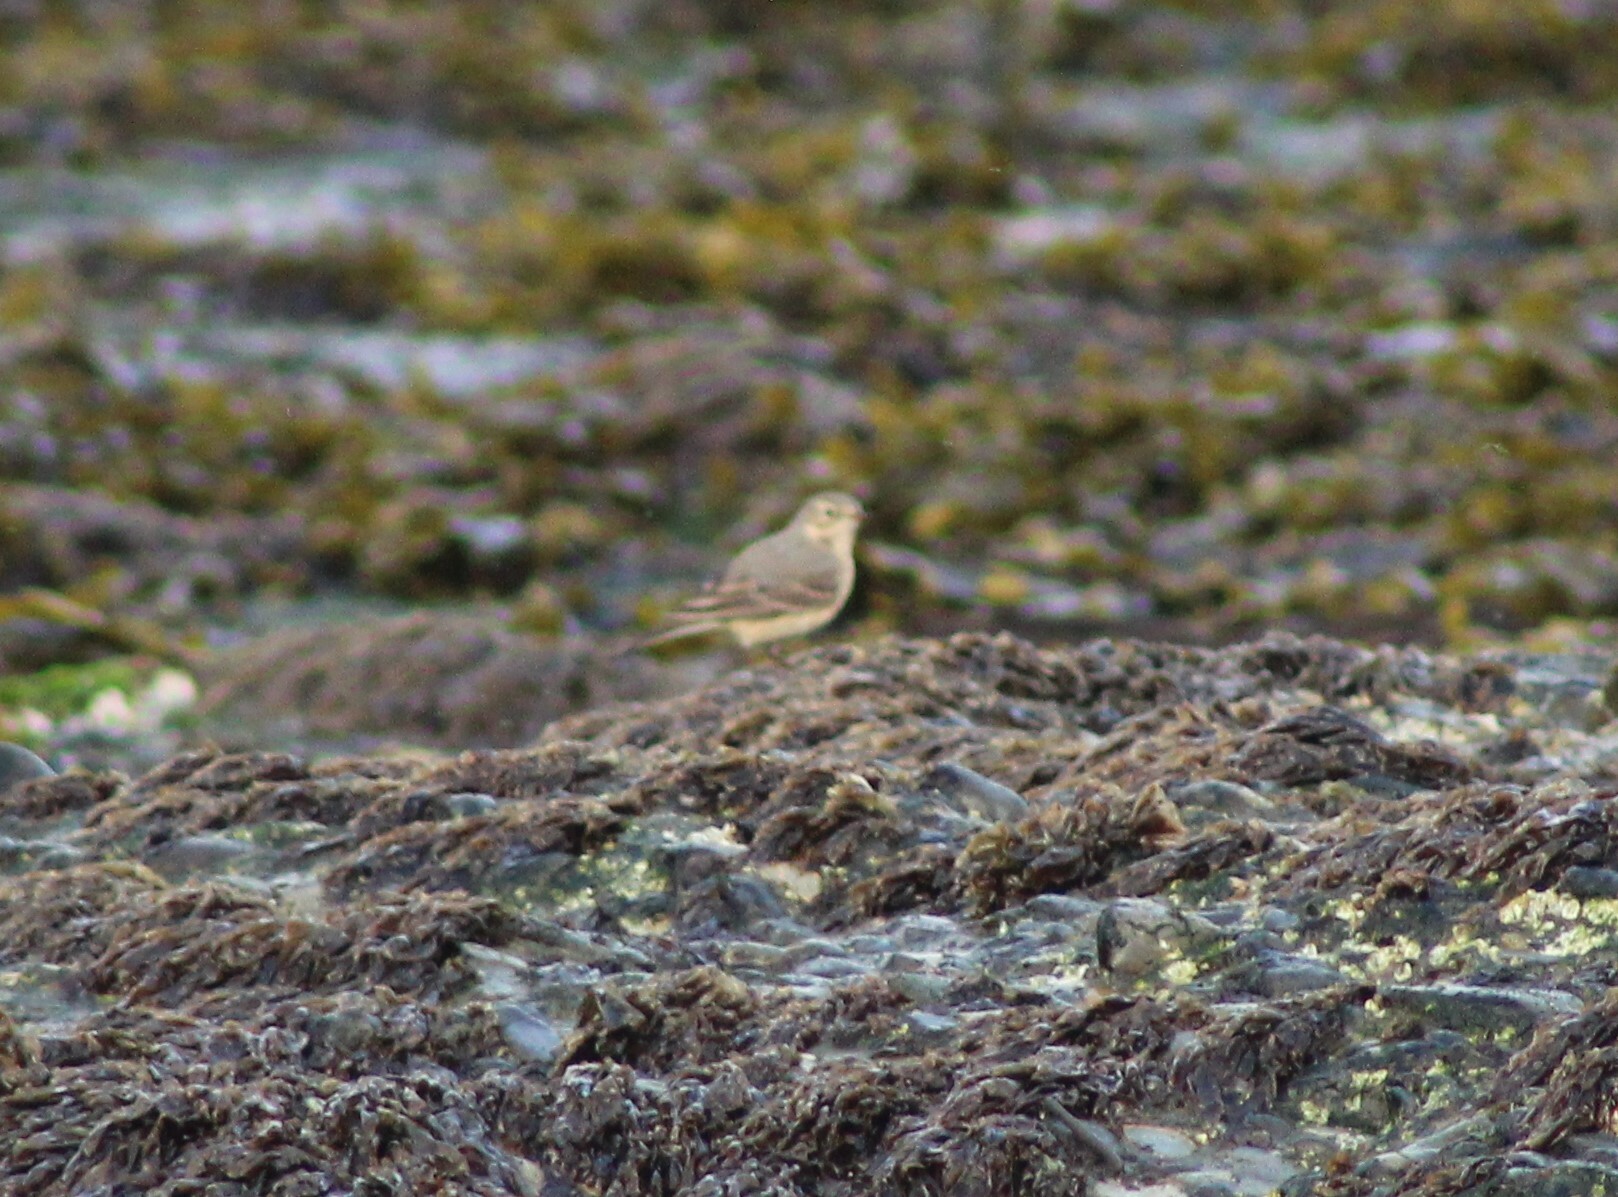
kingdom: Animalia
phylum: Chordata
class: Aves
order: Passeriformes
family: Motacillidae
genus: Anthus
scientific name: Anthus rubescens
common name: Buff-bellied pipit
